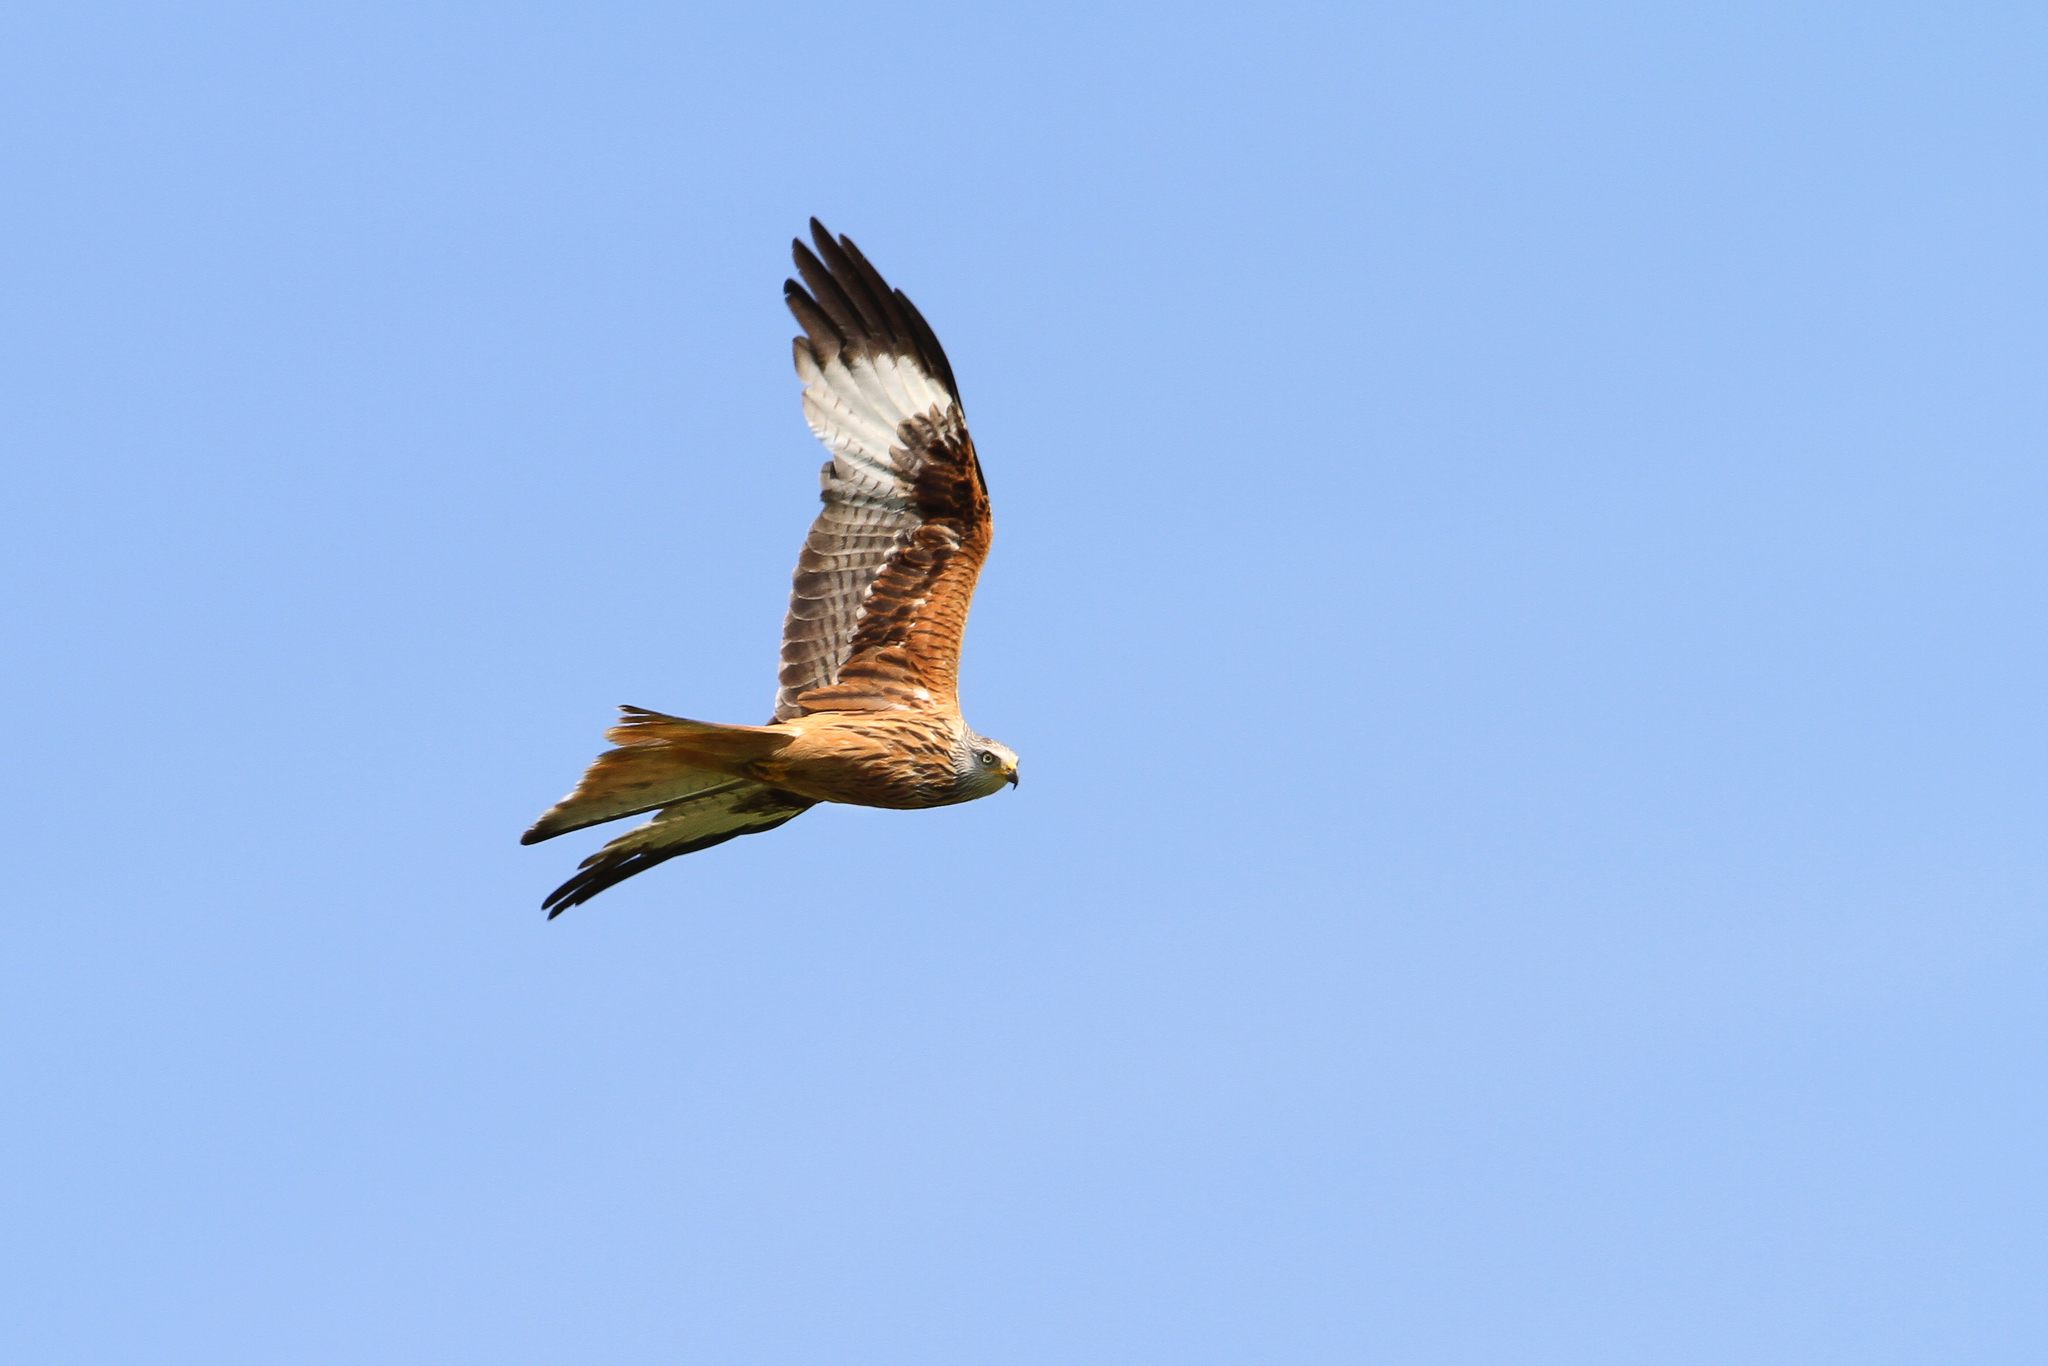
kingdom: Animalia
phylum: Chordata
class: Aves
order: Accipitriformes
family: Accipitridae
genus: Milvus
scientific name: Milvus milvus
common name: Red kite
